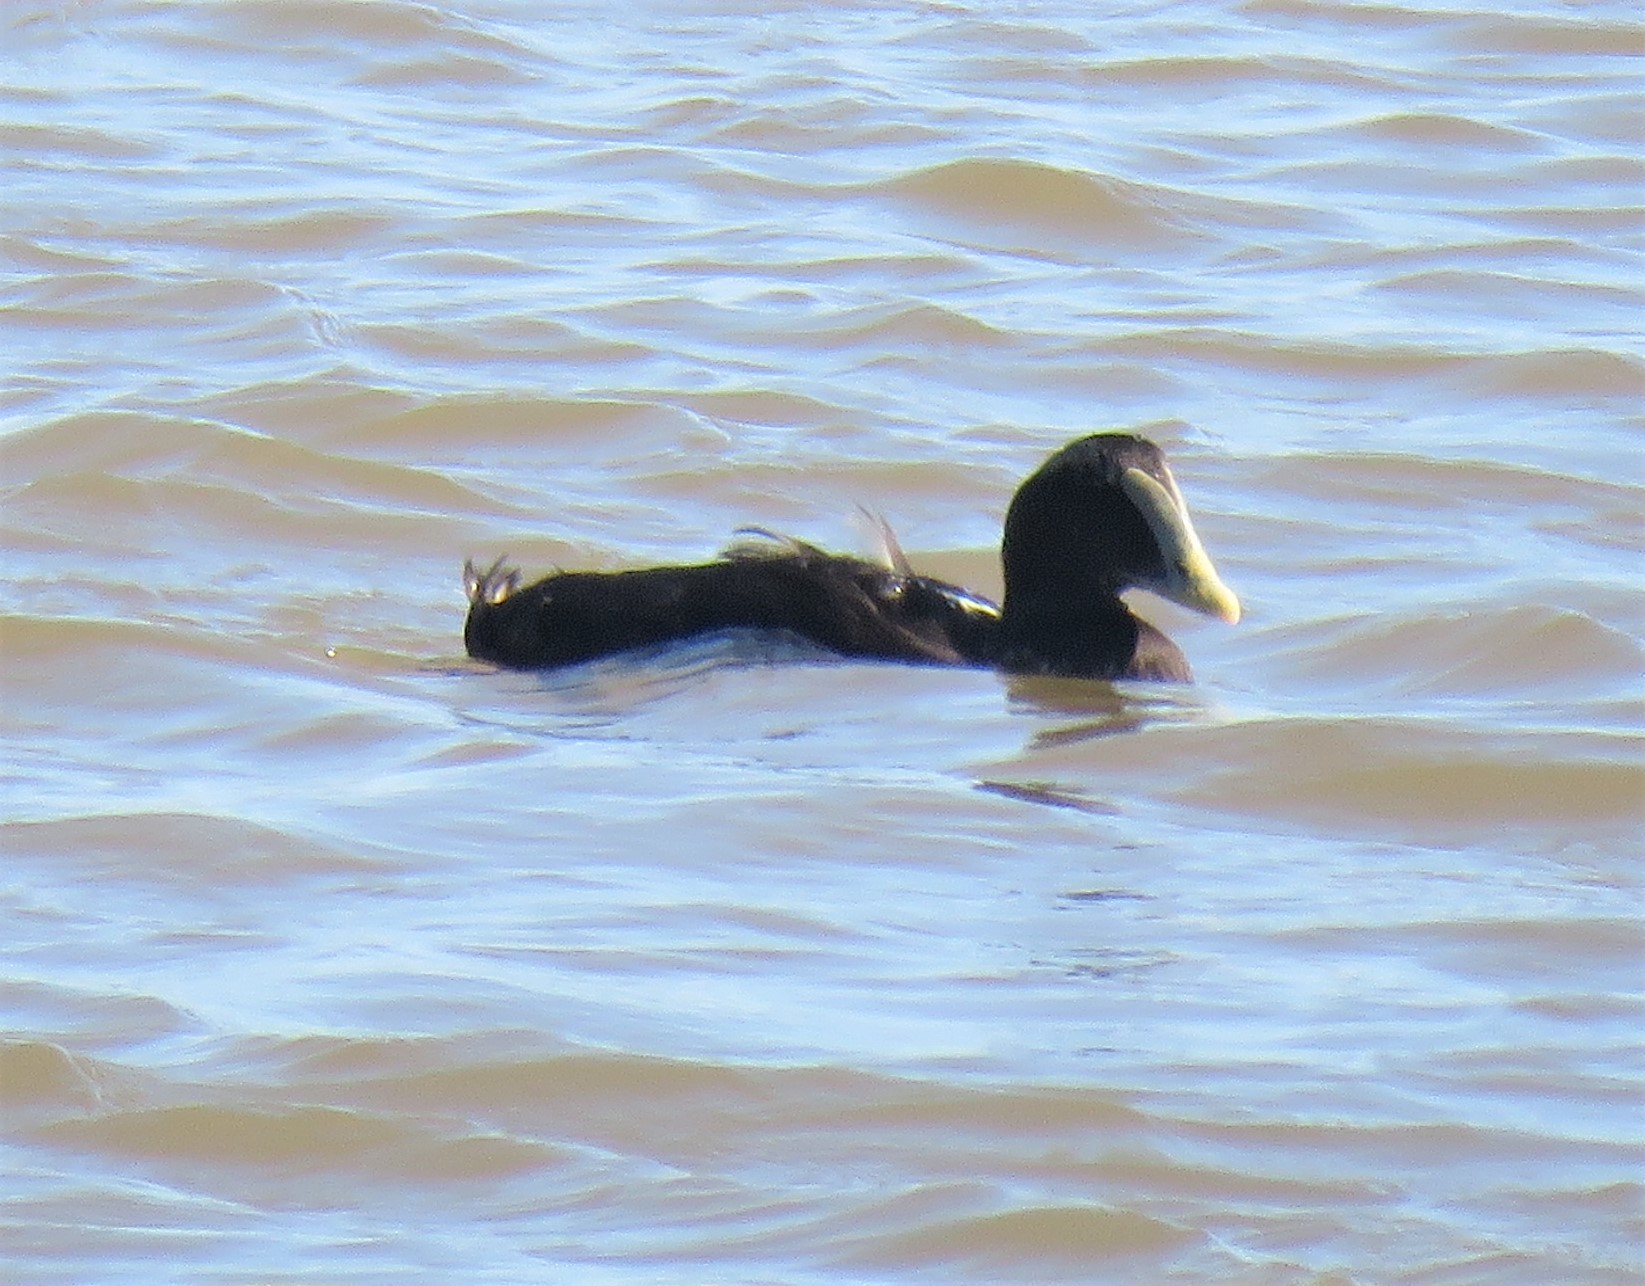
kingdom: Animalia
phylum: Chordata
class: Aves
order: Anseriformes
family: Anatidae
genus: Somateria
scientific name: Somateria mollissima
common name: Common eider
